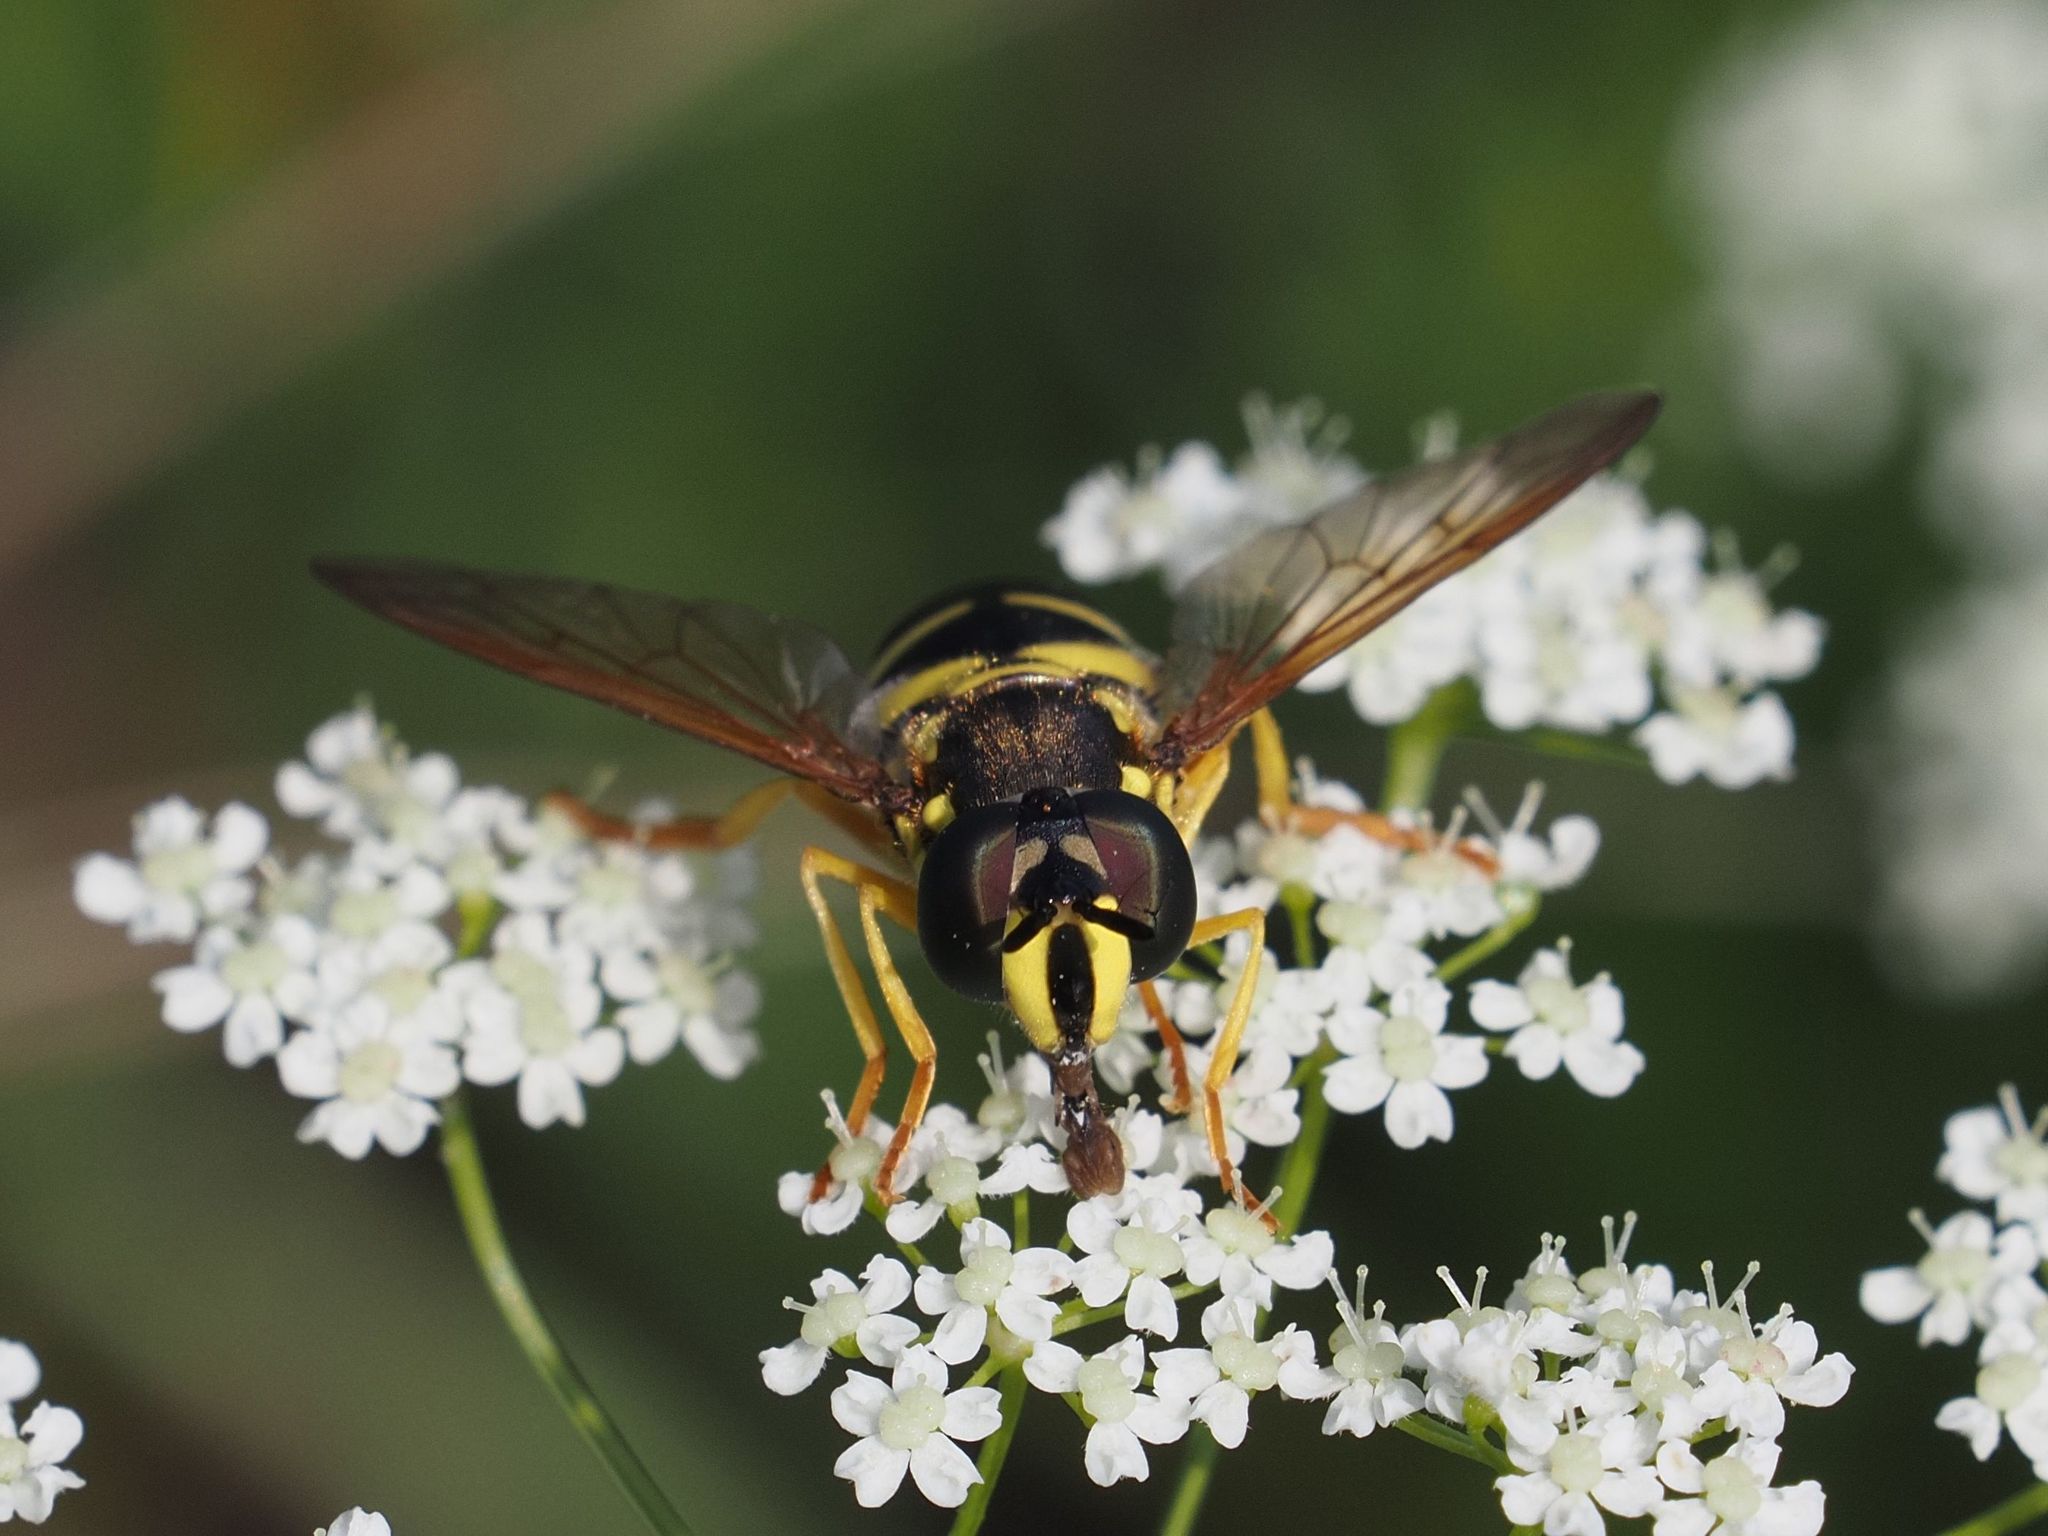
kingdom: Animalia
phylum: Arthropoda
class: Insecta
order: Diptera
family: Syrphidae
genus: Chrysotoxum
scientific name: Chrysotoxum elegans
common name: Zipperback
